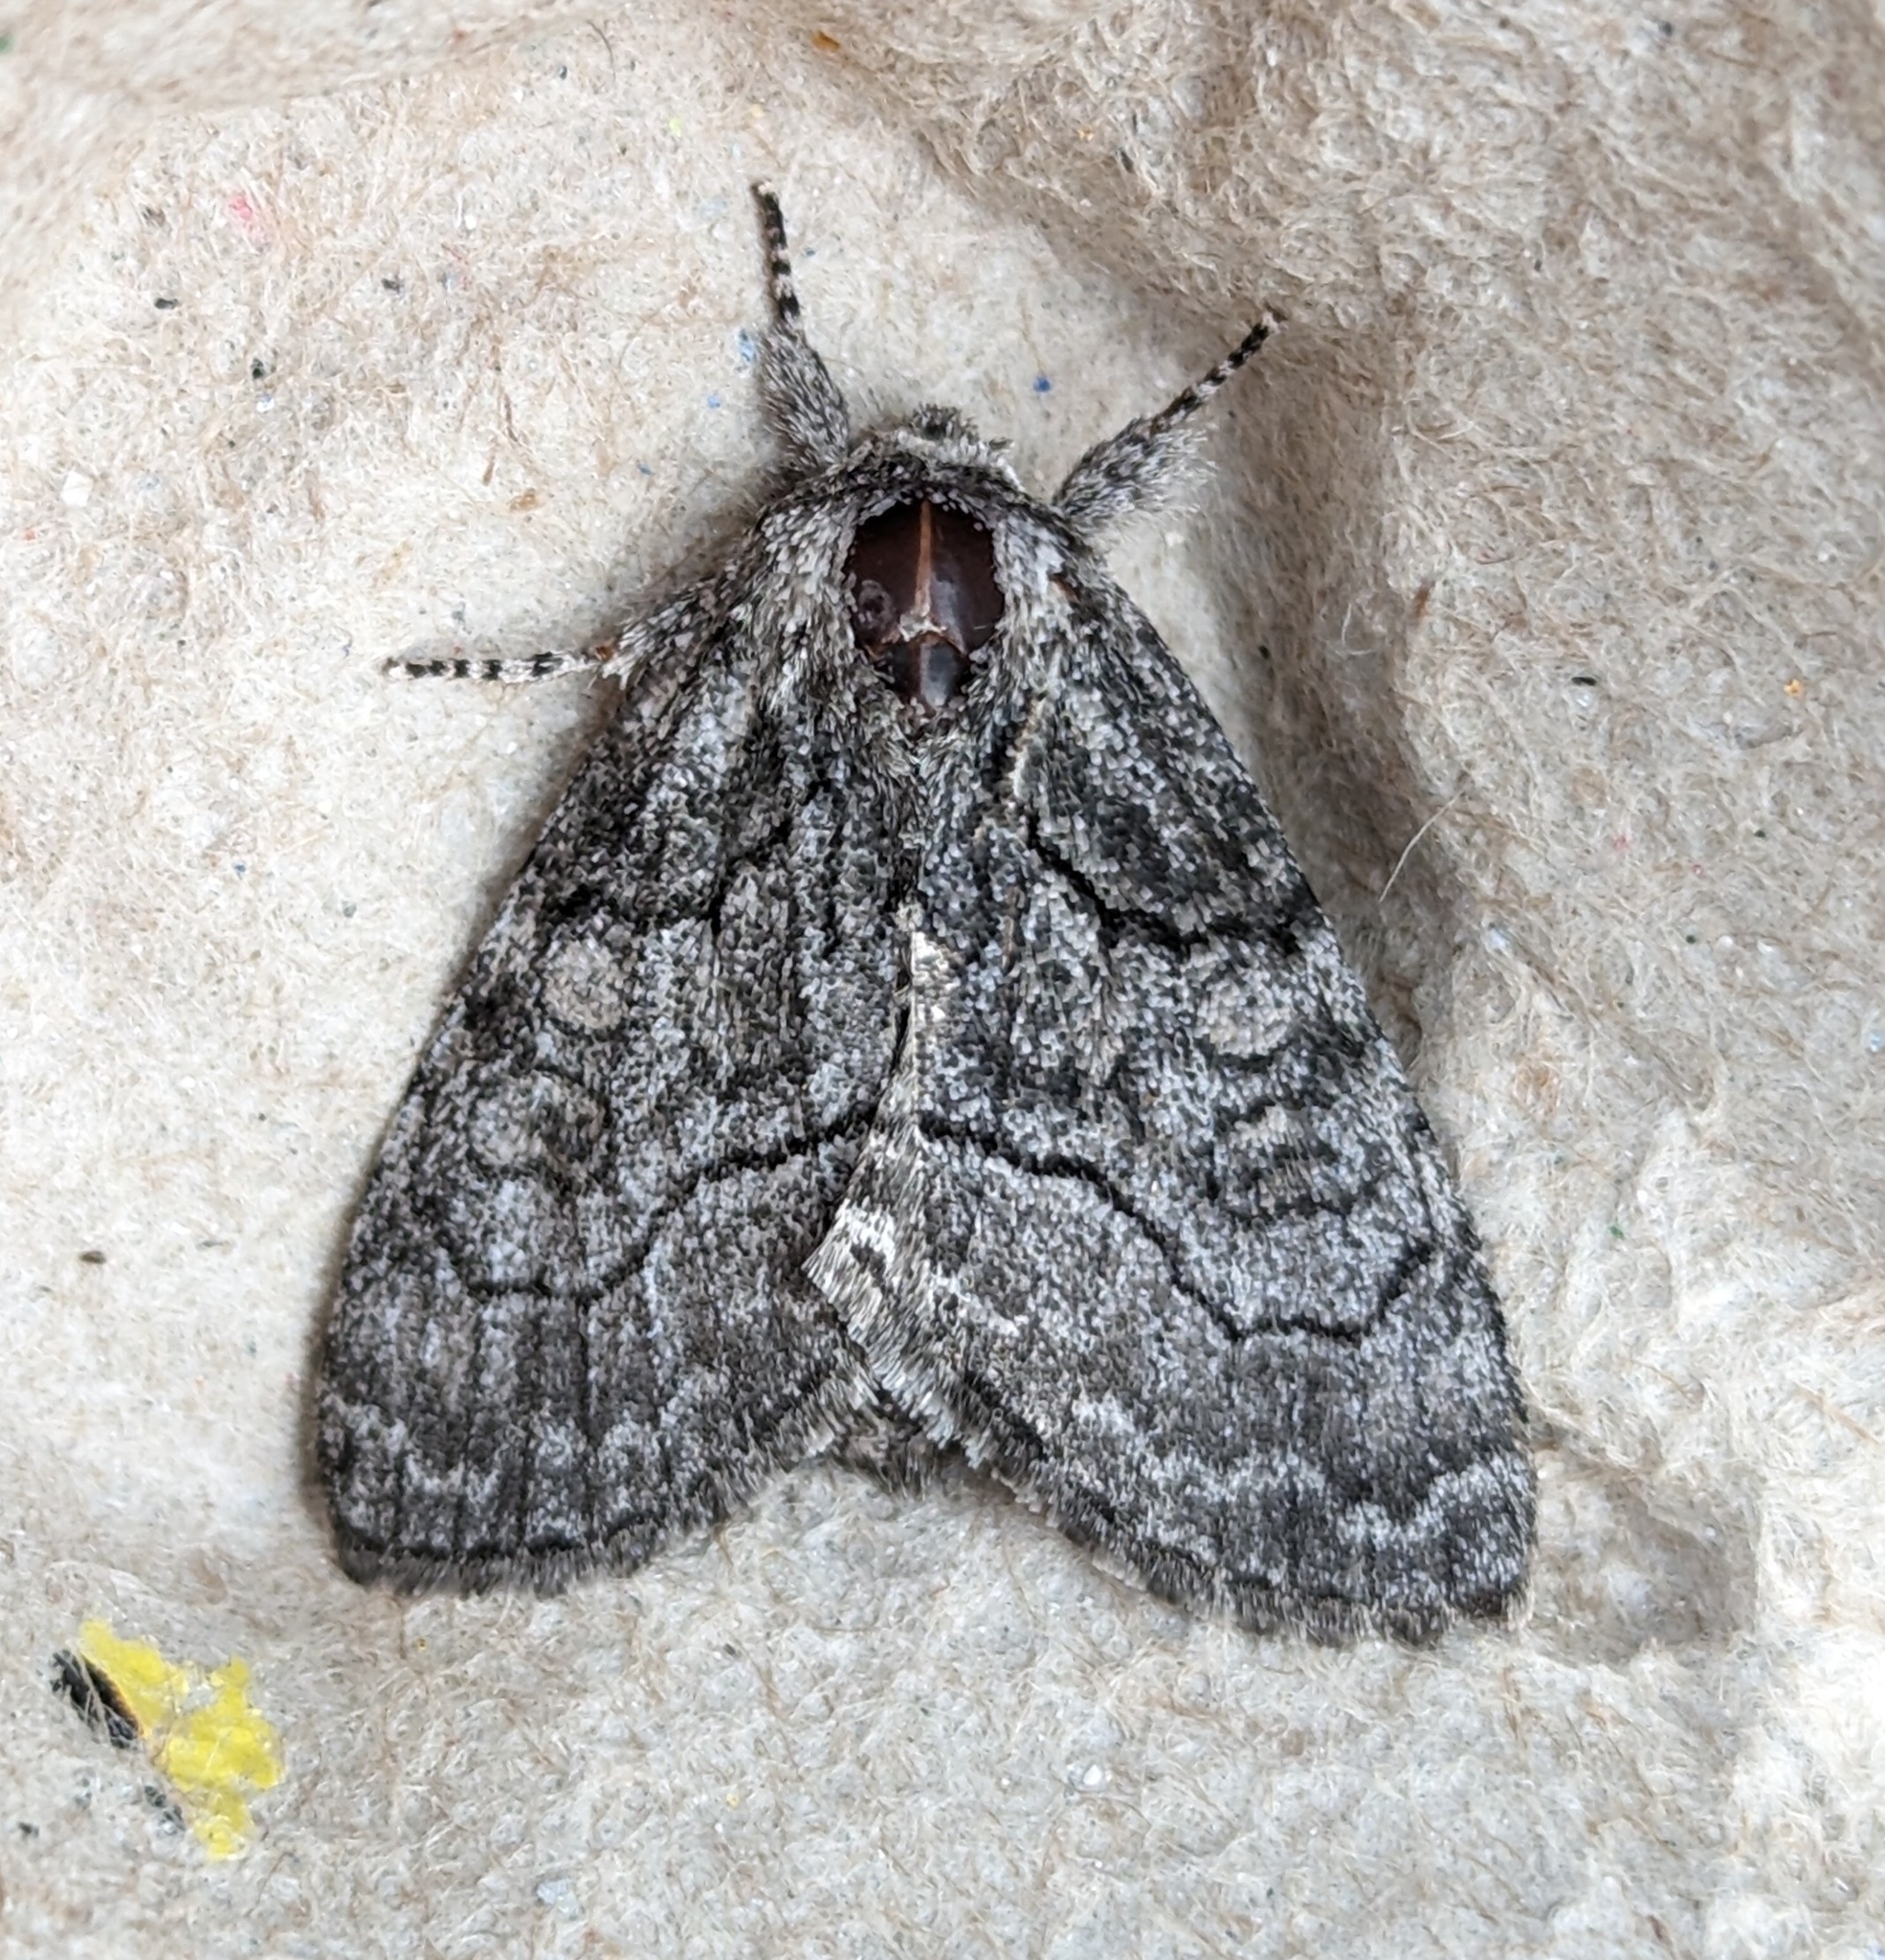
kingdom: Animalia
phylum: Arthropoda
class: Insecta
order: Lepidoptera
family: Noctuidae
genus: Raphia
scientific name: Raphia frater
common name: Brother
